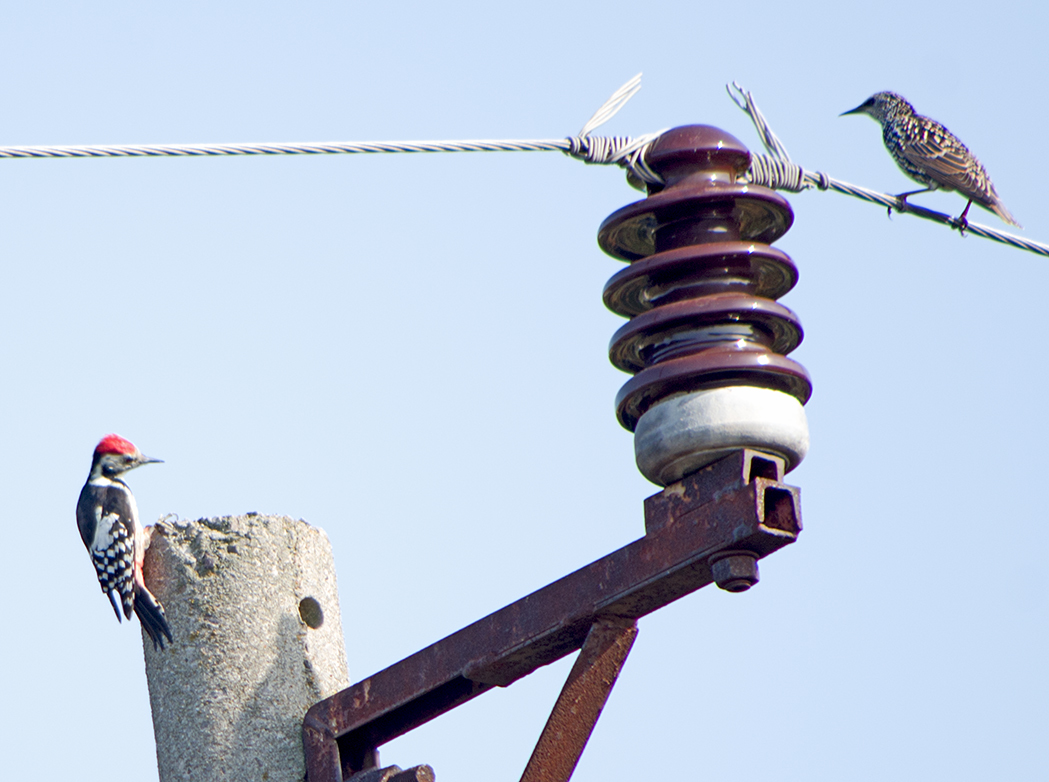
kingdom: Animalia
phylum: Chordata
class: Aves
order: Piciformes
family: Picidae
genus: Dendrocoptes
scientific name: Dendrocoptes medius
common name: Middle spotted woodpecker
